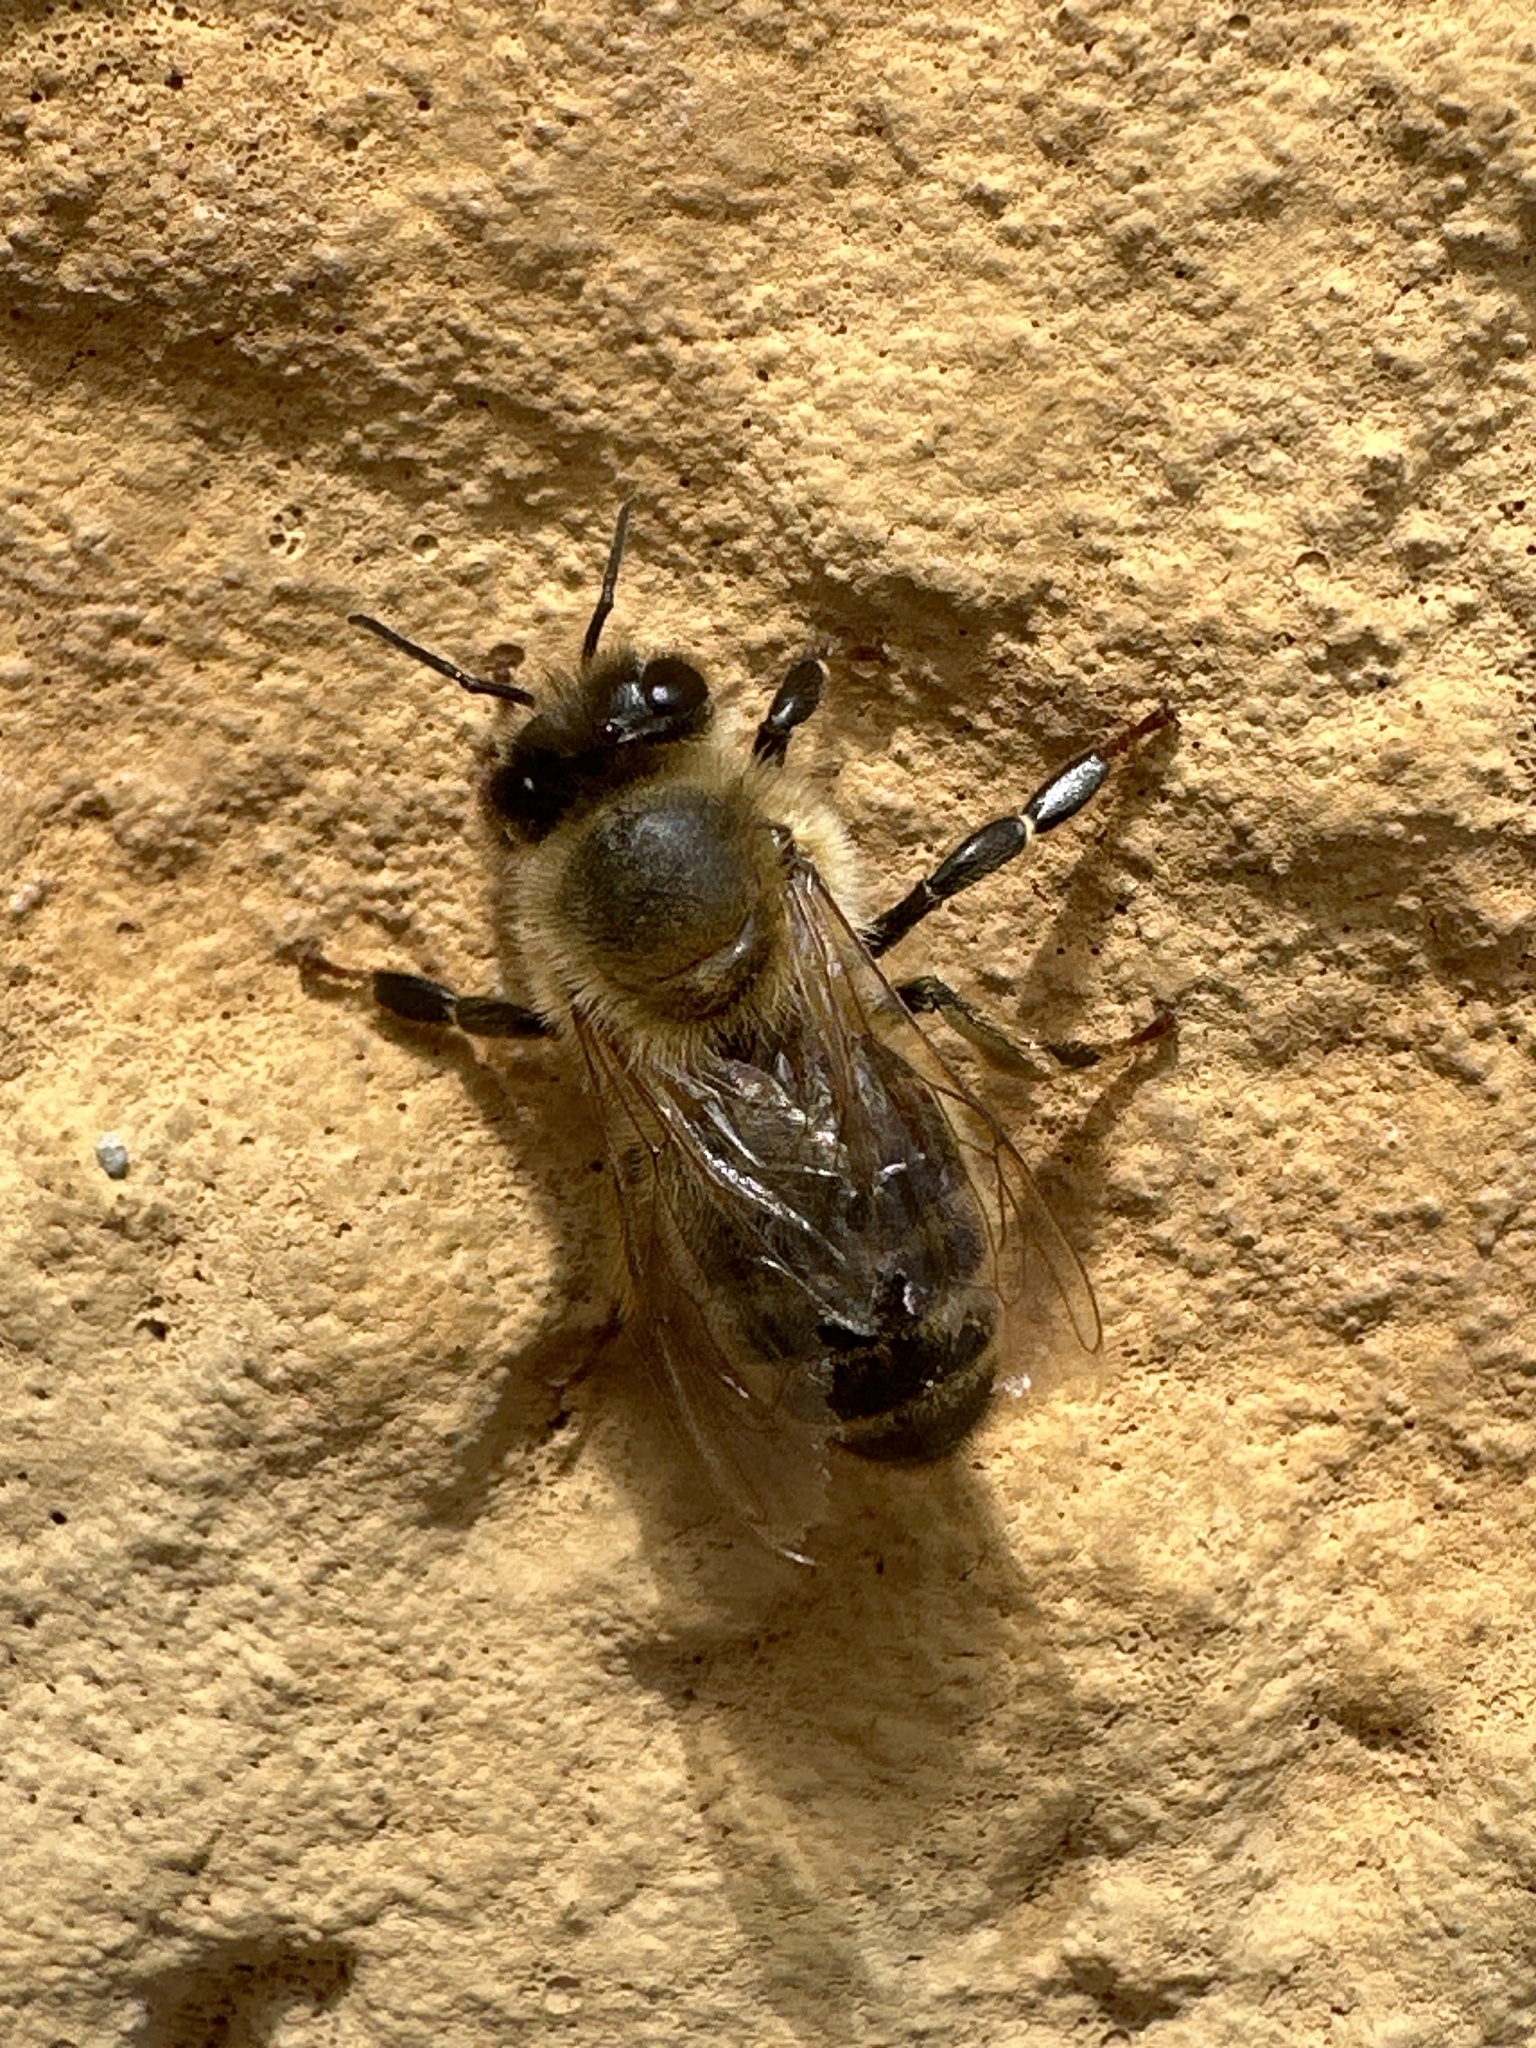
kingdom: Animalia
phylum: Arthropoda
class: Insecta
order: Hymenoptera
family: Apidae
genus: Apis
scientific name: Apis mellifera
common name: Honey bee
